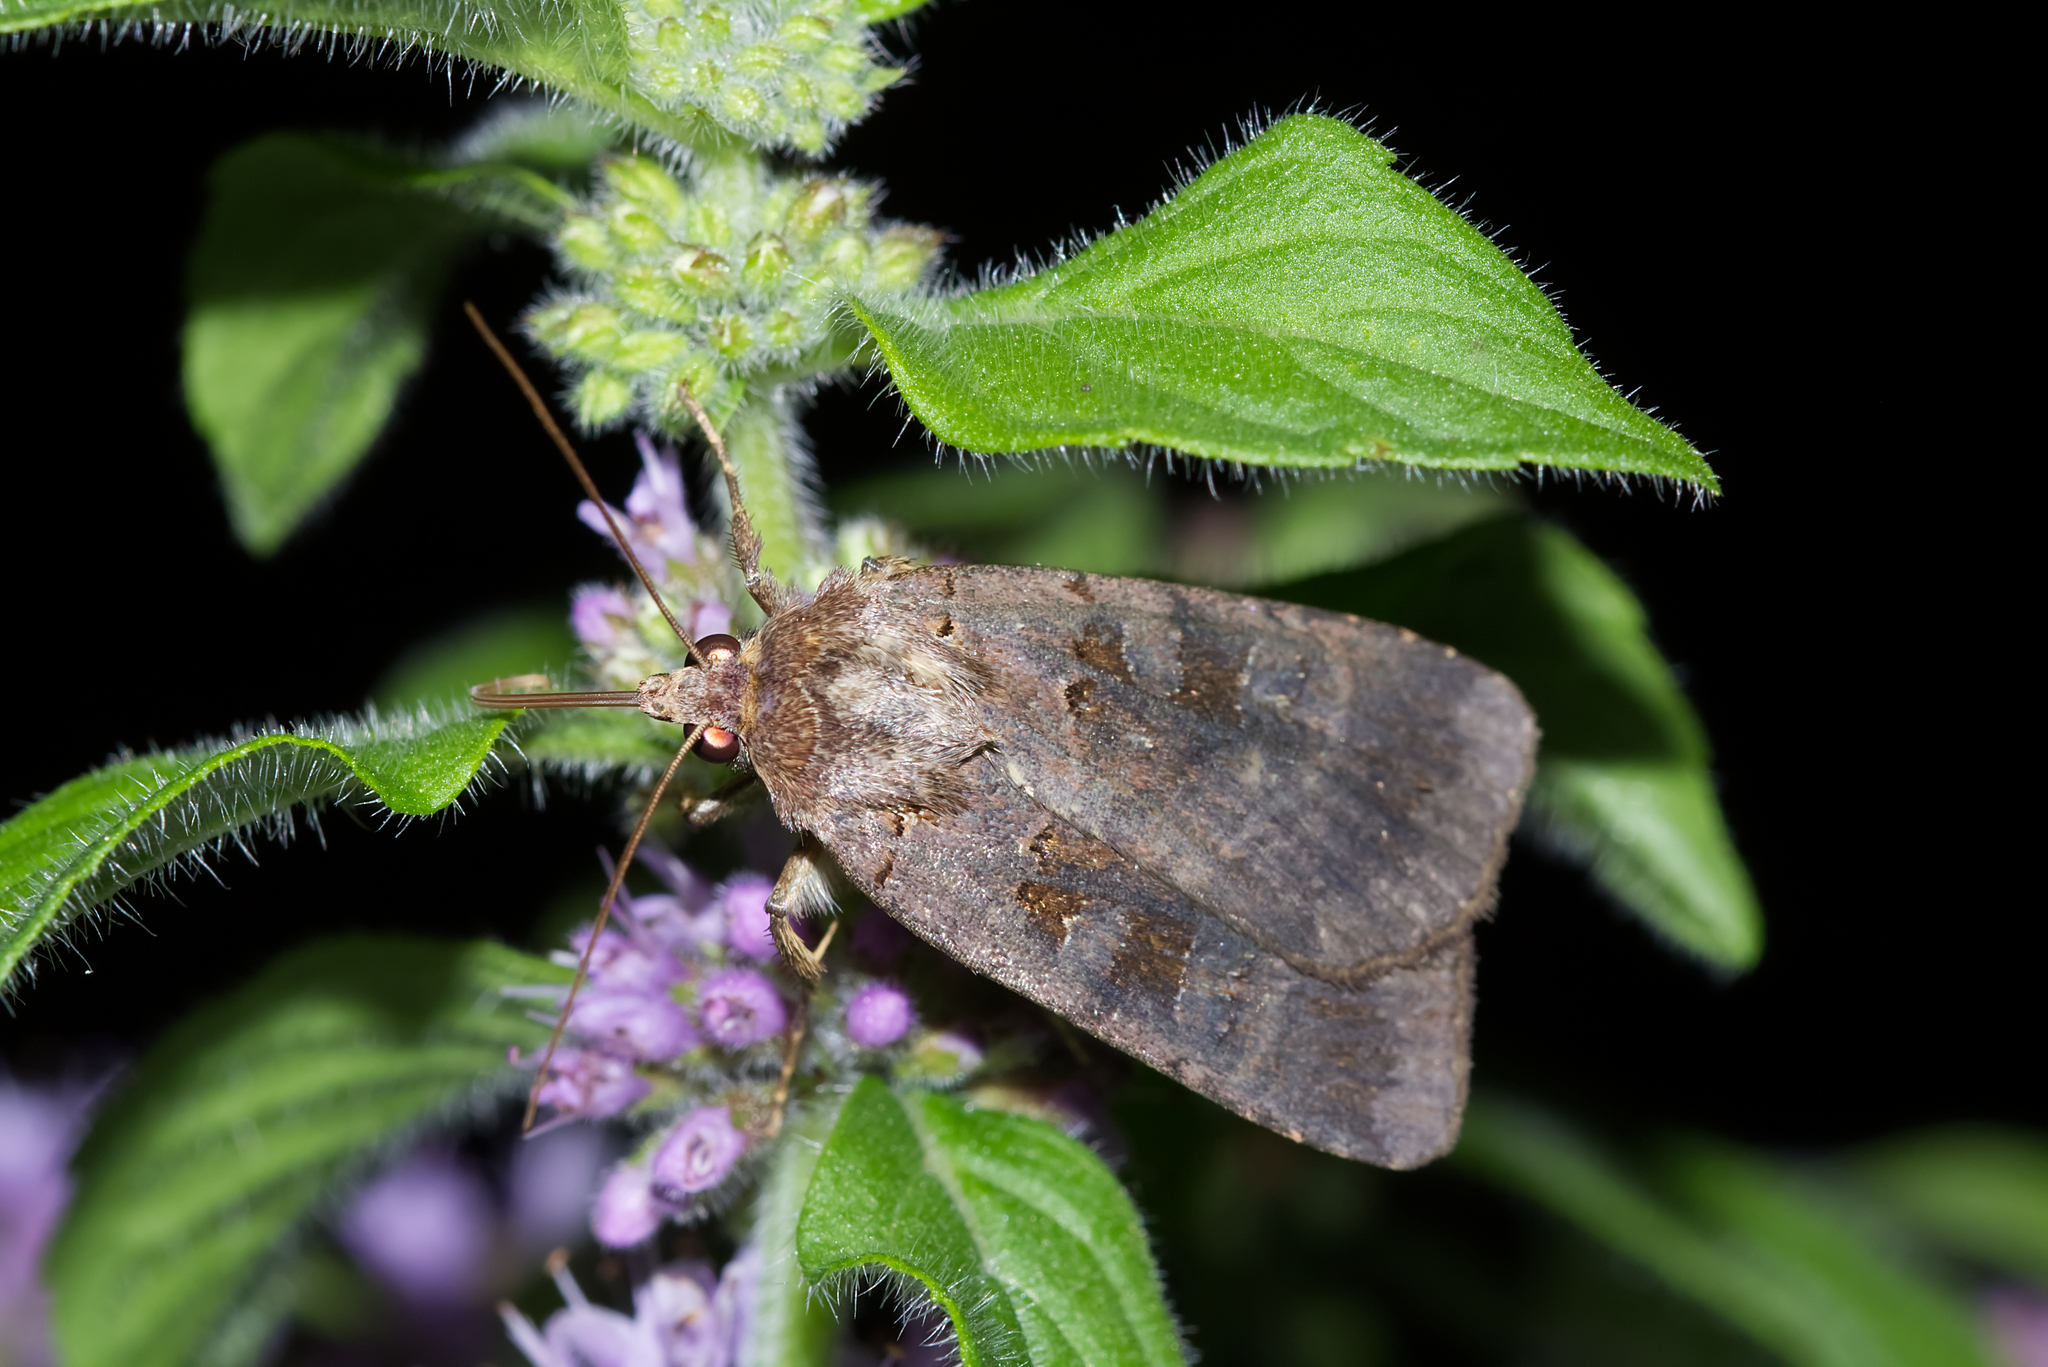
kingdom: Animalia
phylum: Arthropoda
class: Insecta
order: Lepidoptera
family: Noctuidae
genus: Xestia
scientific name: Xestia stigmatica
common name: Square-spotted clay
